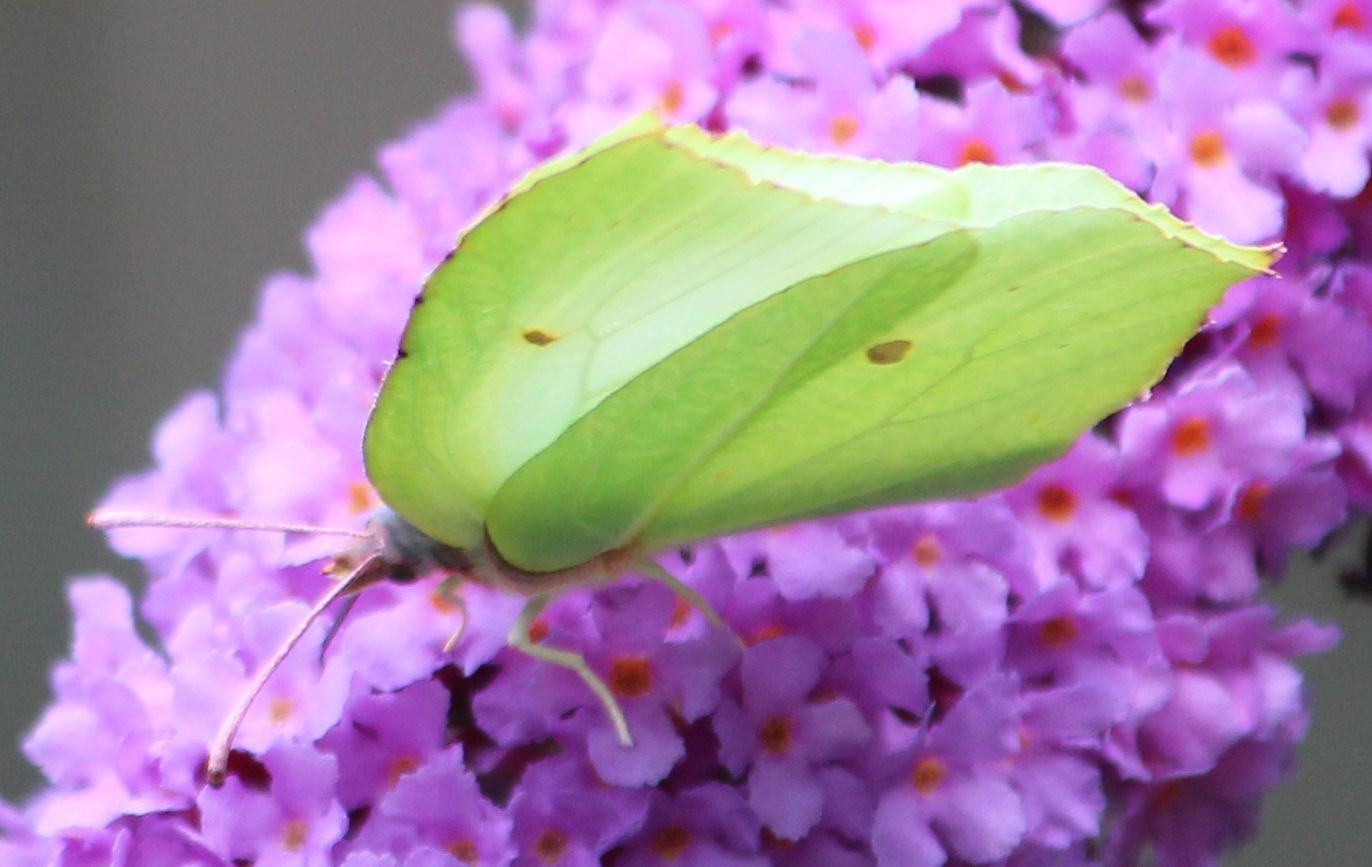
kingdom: Animalia
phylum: Arthropoda
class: Insecta
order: Lepidoptera
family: Pieridae
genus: Gonepteryx
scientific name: Gonepteryx rhamni
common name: Brimstone
